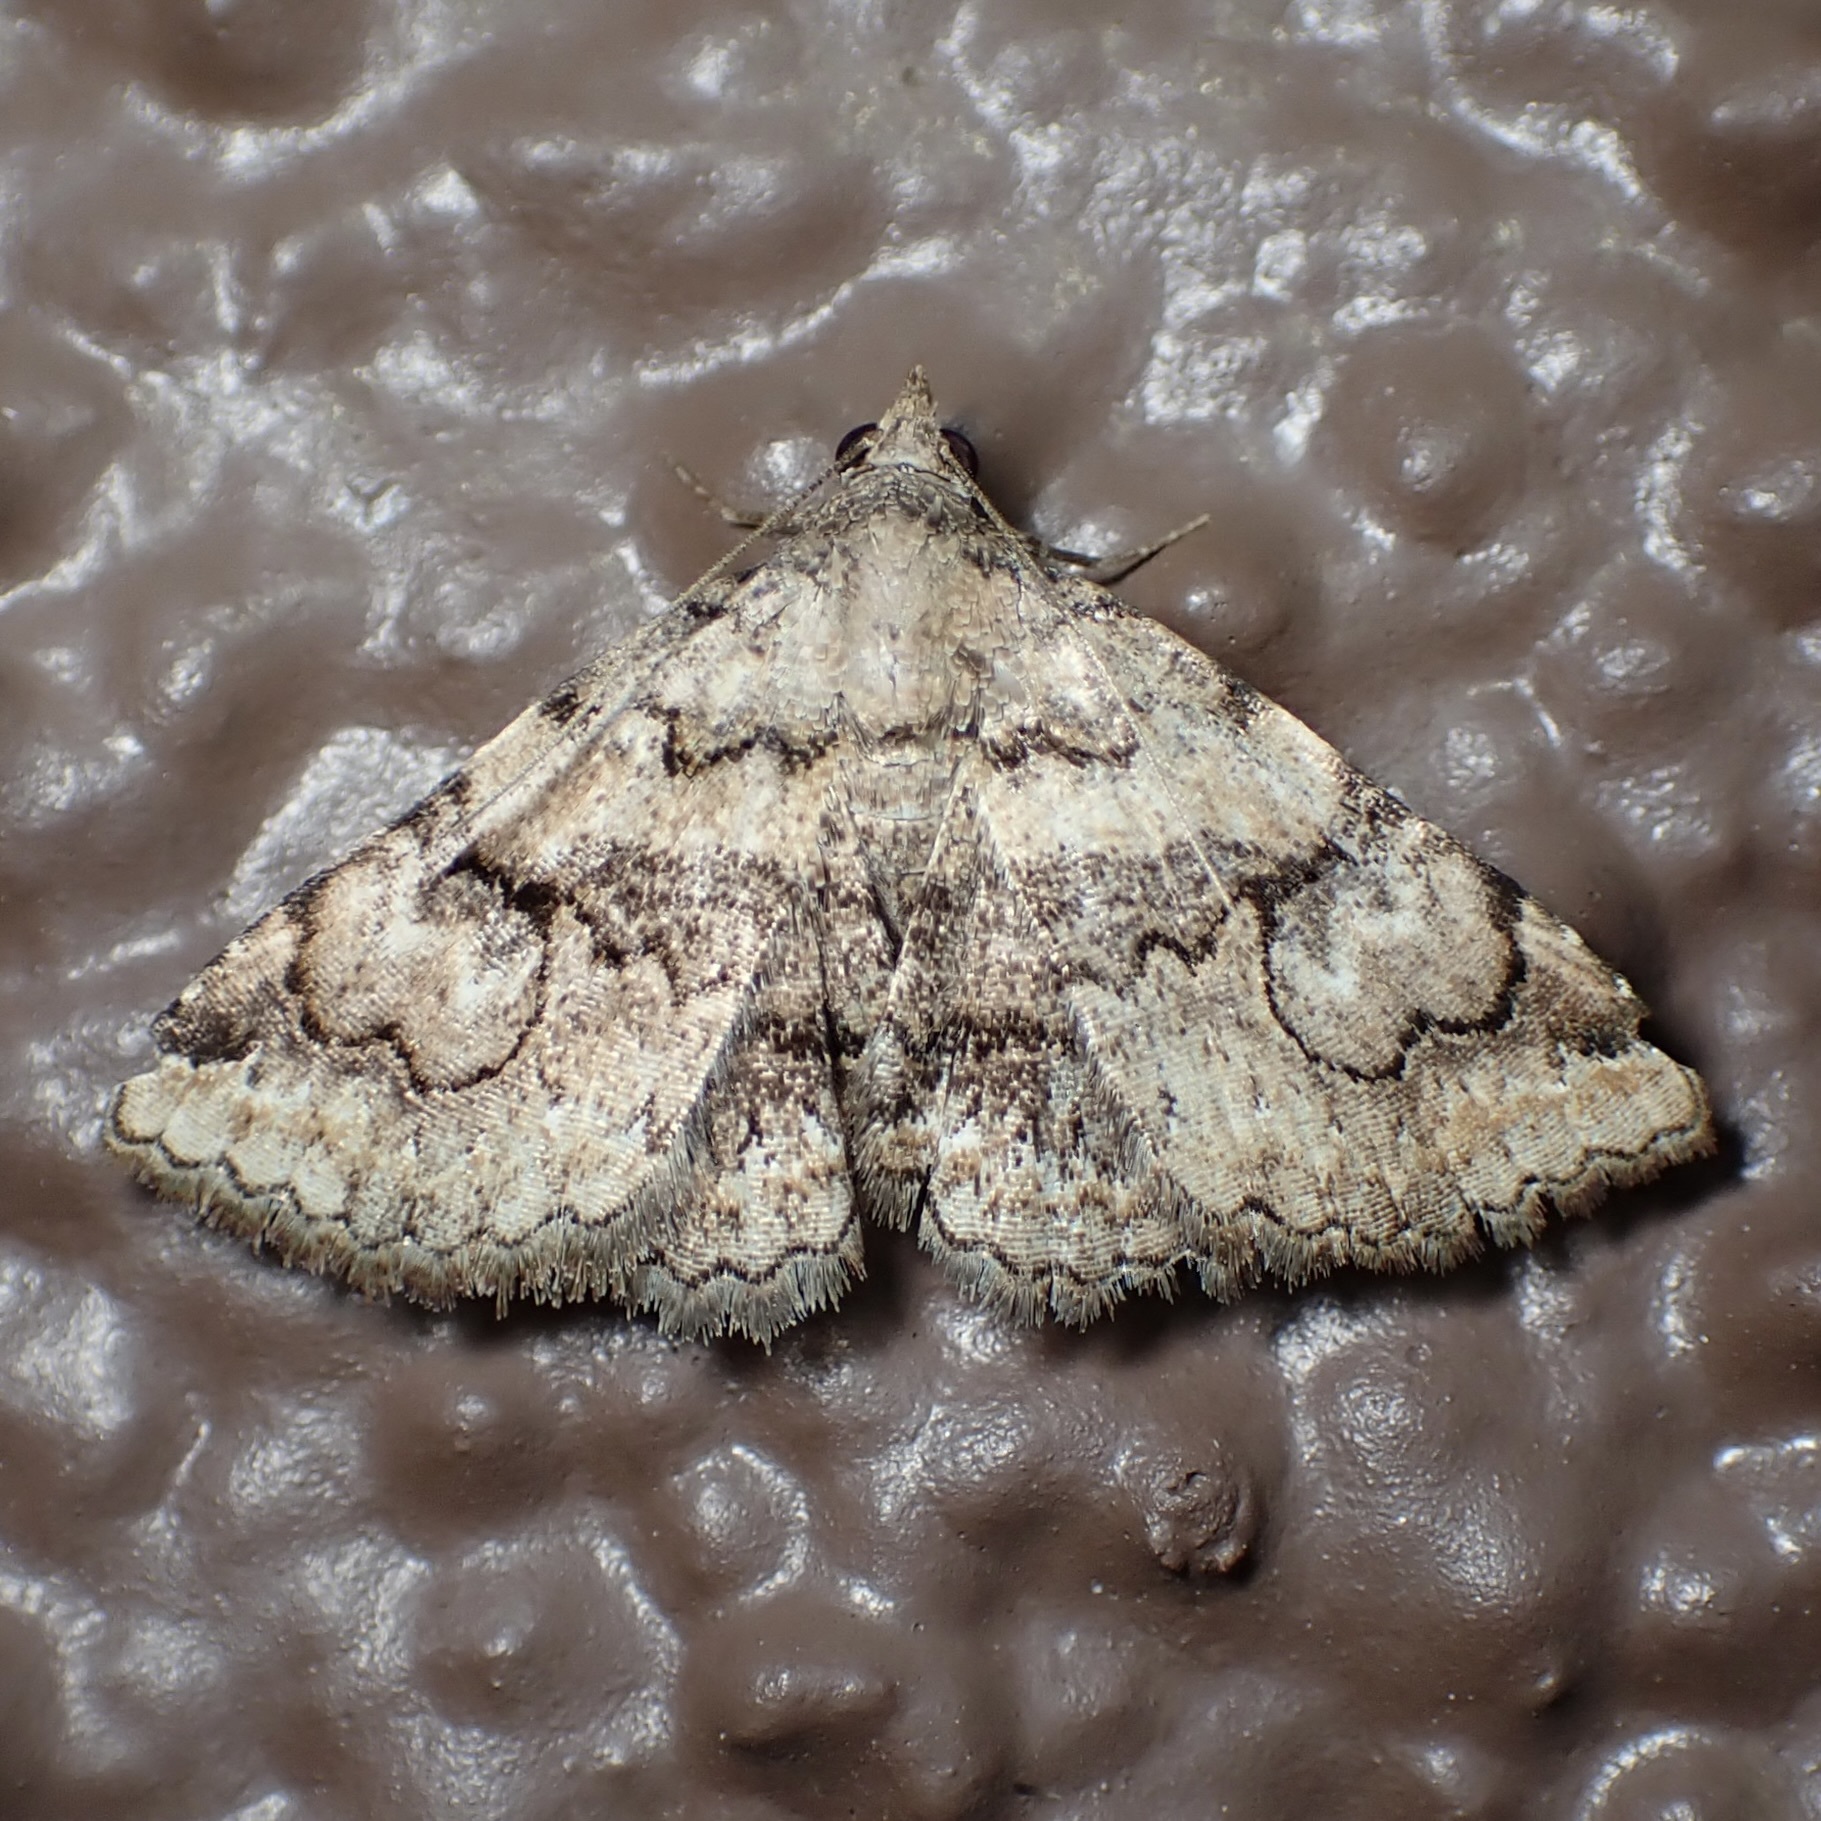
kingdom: Animalia
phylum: Arthropoda
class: Insecta
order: Lepidoptera
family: Erebidae
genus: Toxonprucha
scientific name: Toxonprucha repentis
